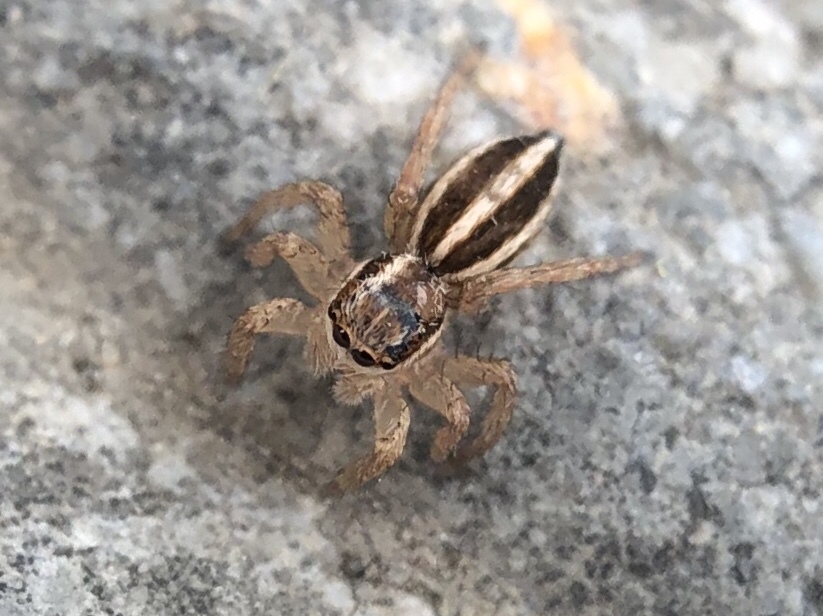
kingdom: Animalia
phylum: Arthropoda
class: Arachnida
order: Araneae
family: Salticidae
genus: Phlegra
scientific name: Phlegra bresnieri
